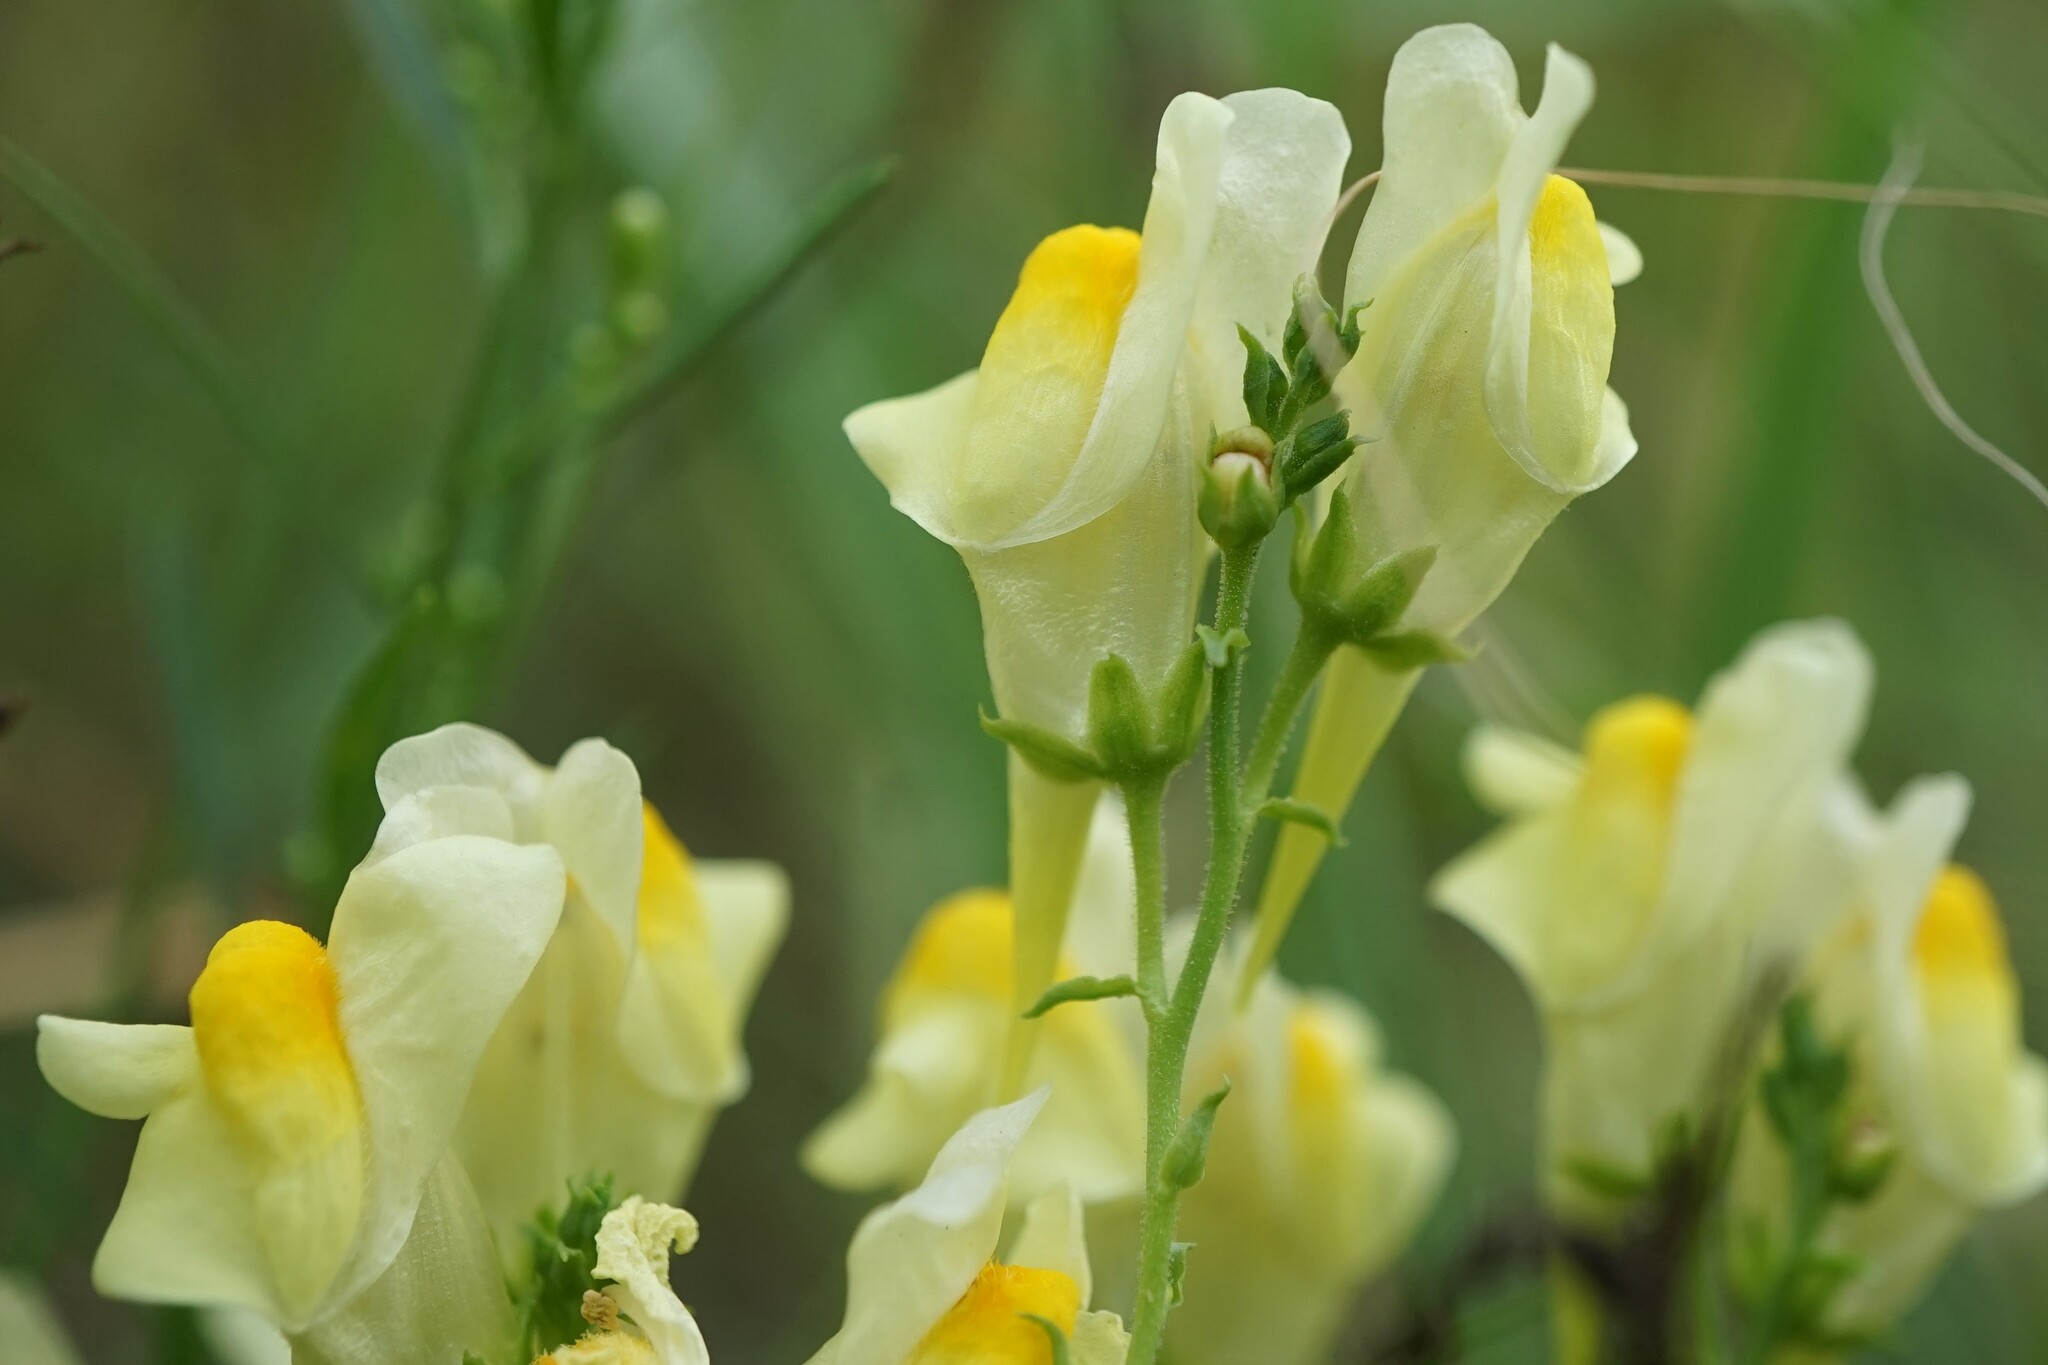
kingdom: Plantae
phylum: Tracheophyta
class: Magnoliopsida
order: Lamiales
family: Plantaginaceae
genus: Linaria
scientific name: Linaria vulgaris
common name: Butter and eggs
